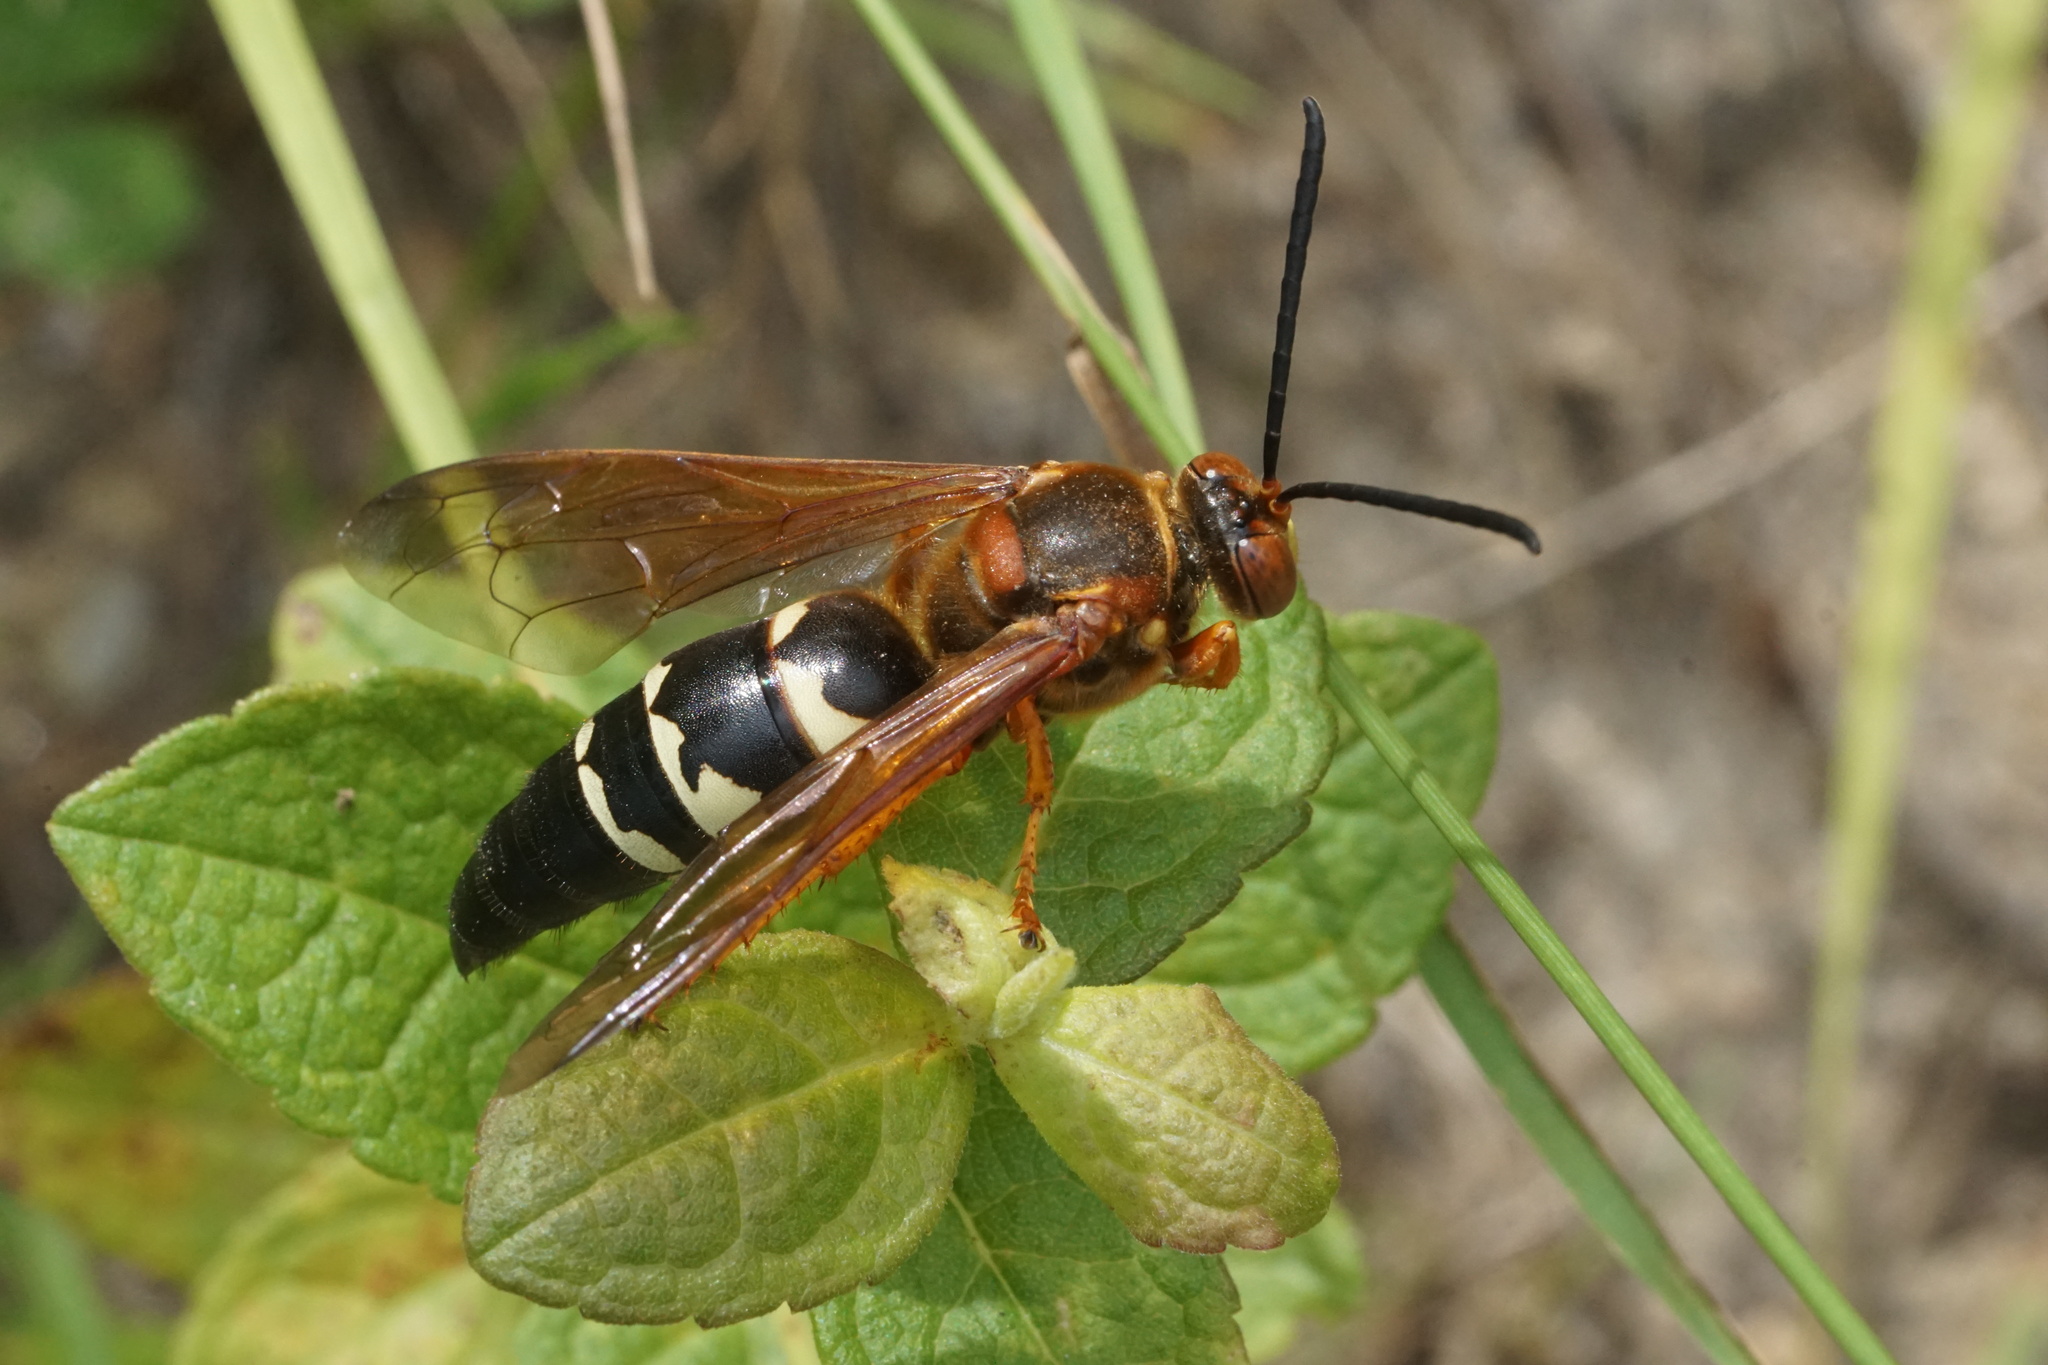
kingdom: Animalia
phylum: Arthropoda
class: Insecta
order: Hymenoptera
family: Crabronidae
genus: Sphecius
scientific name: Sphecius speciosus
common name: Cicada killer
